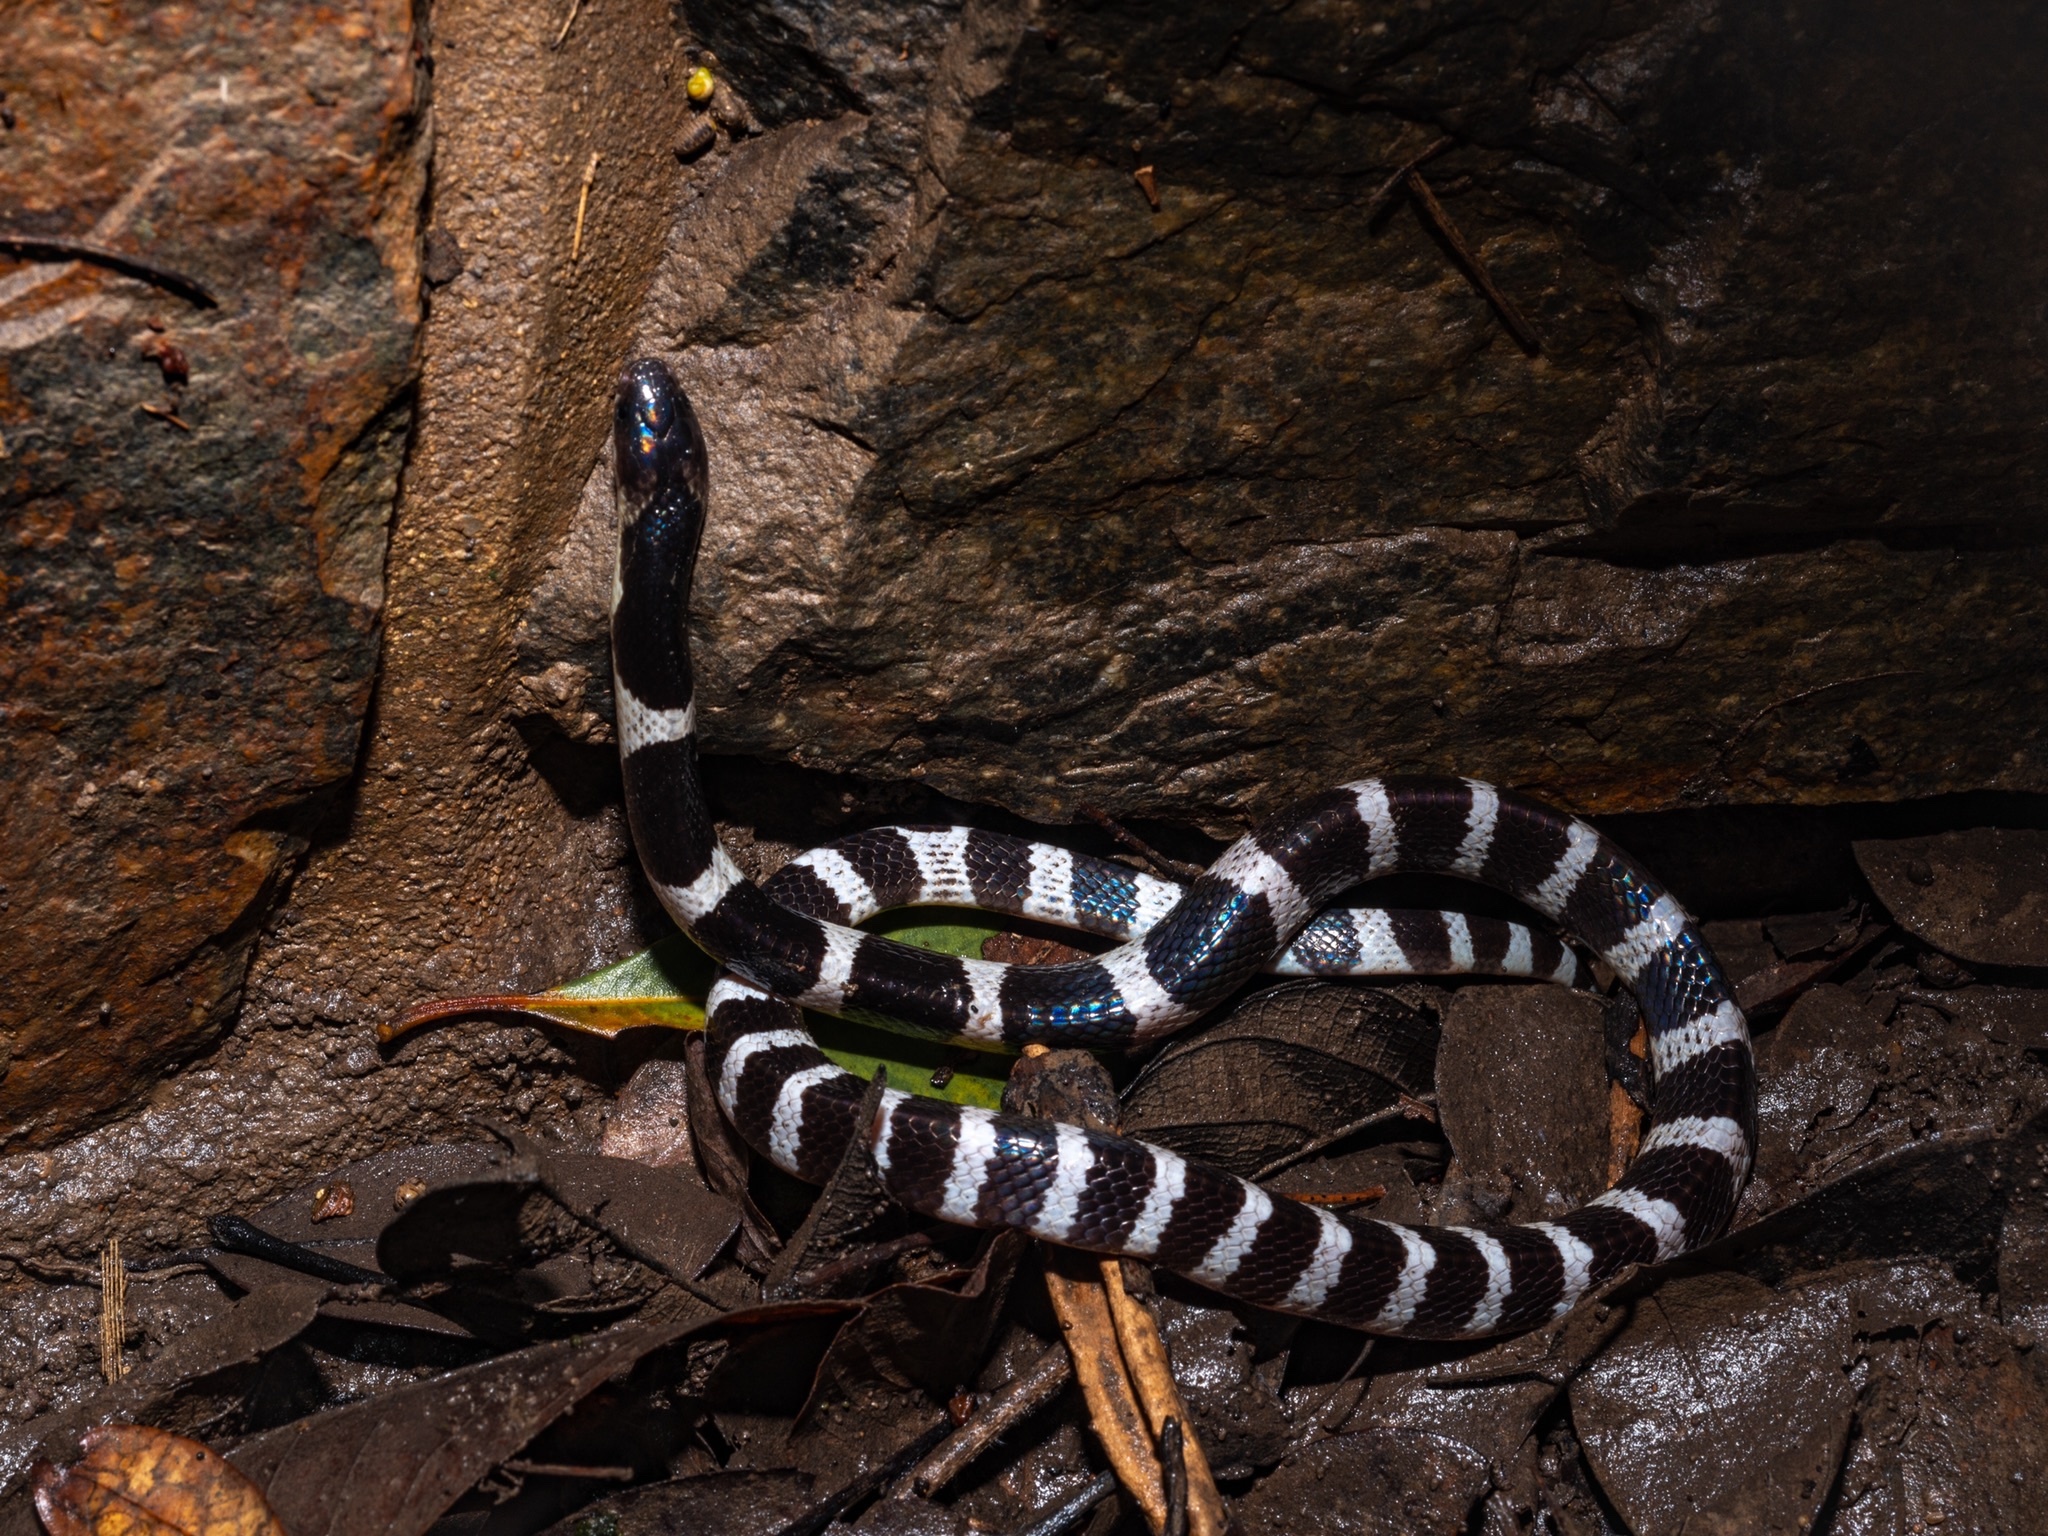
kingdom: Animalia
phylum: Chordata
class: Squamata
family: Elapidae
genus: Bungarus
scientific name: Bungarus multicinctus
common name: Many-banded krait
